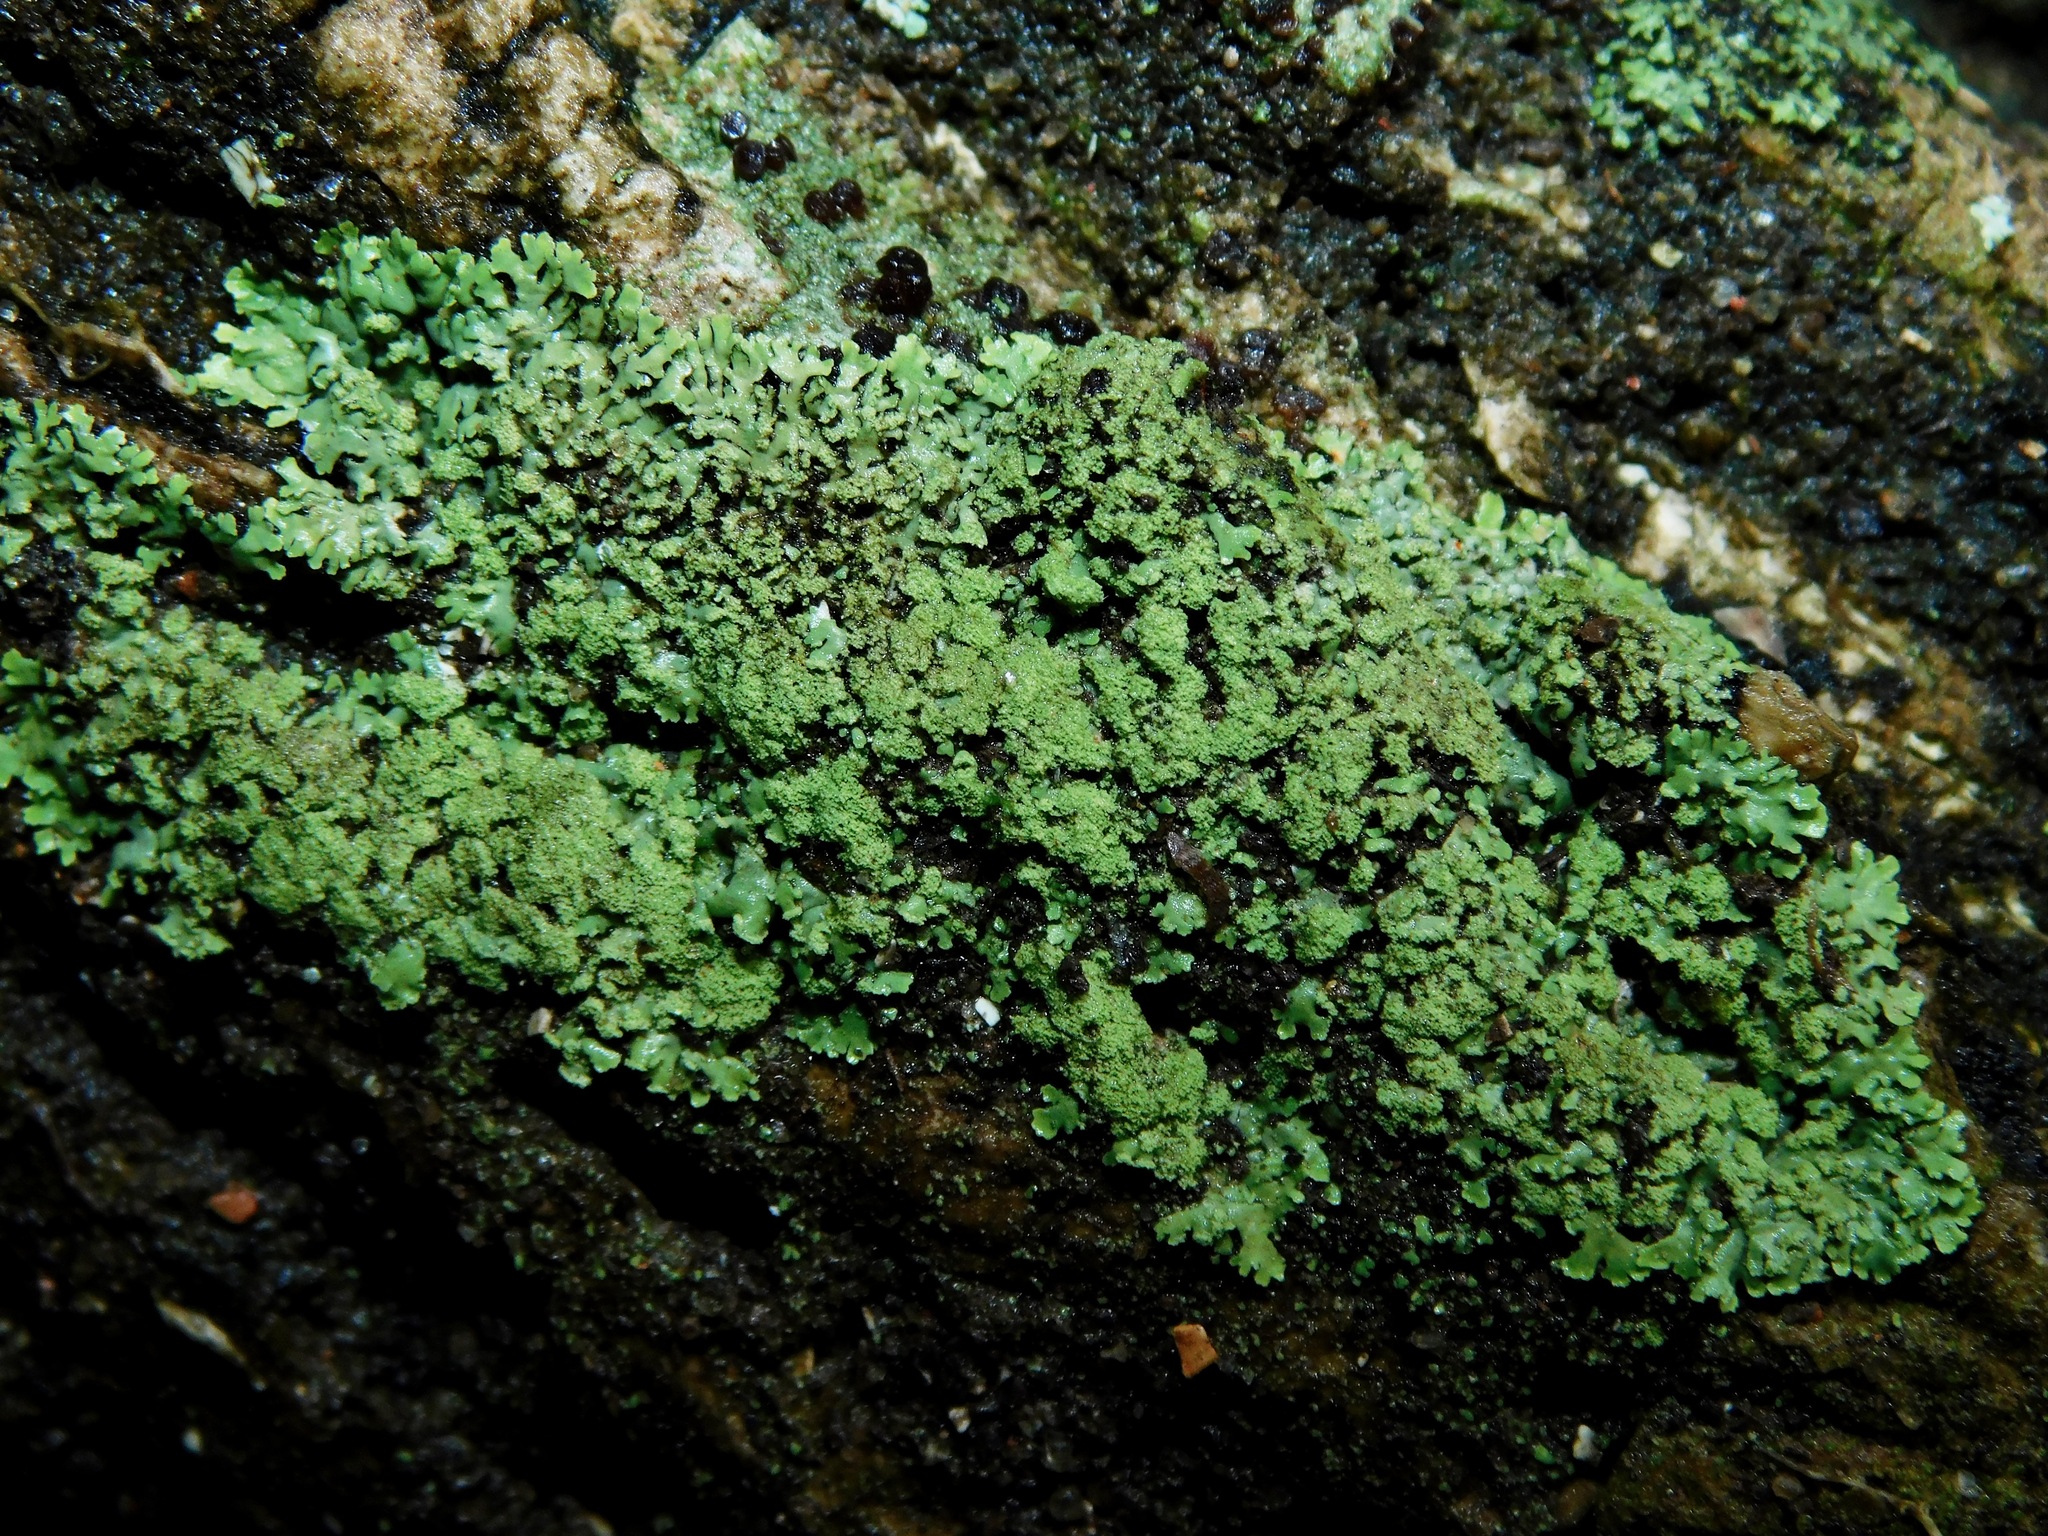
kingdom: Fungi
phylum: Ascomycota
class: Lecanoromycetes
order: Caliciales
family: Physciaceae
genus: Phaeophyscia
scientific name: Phaeophyscia adiastola
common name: Powder-tipped shadow lichen
